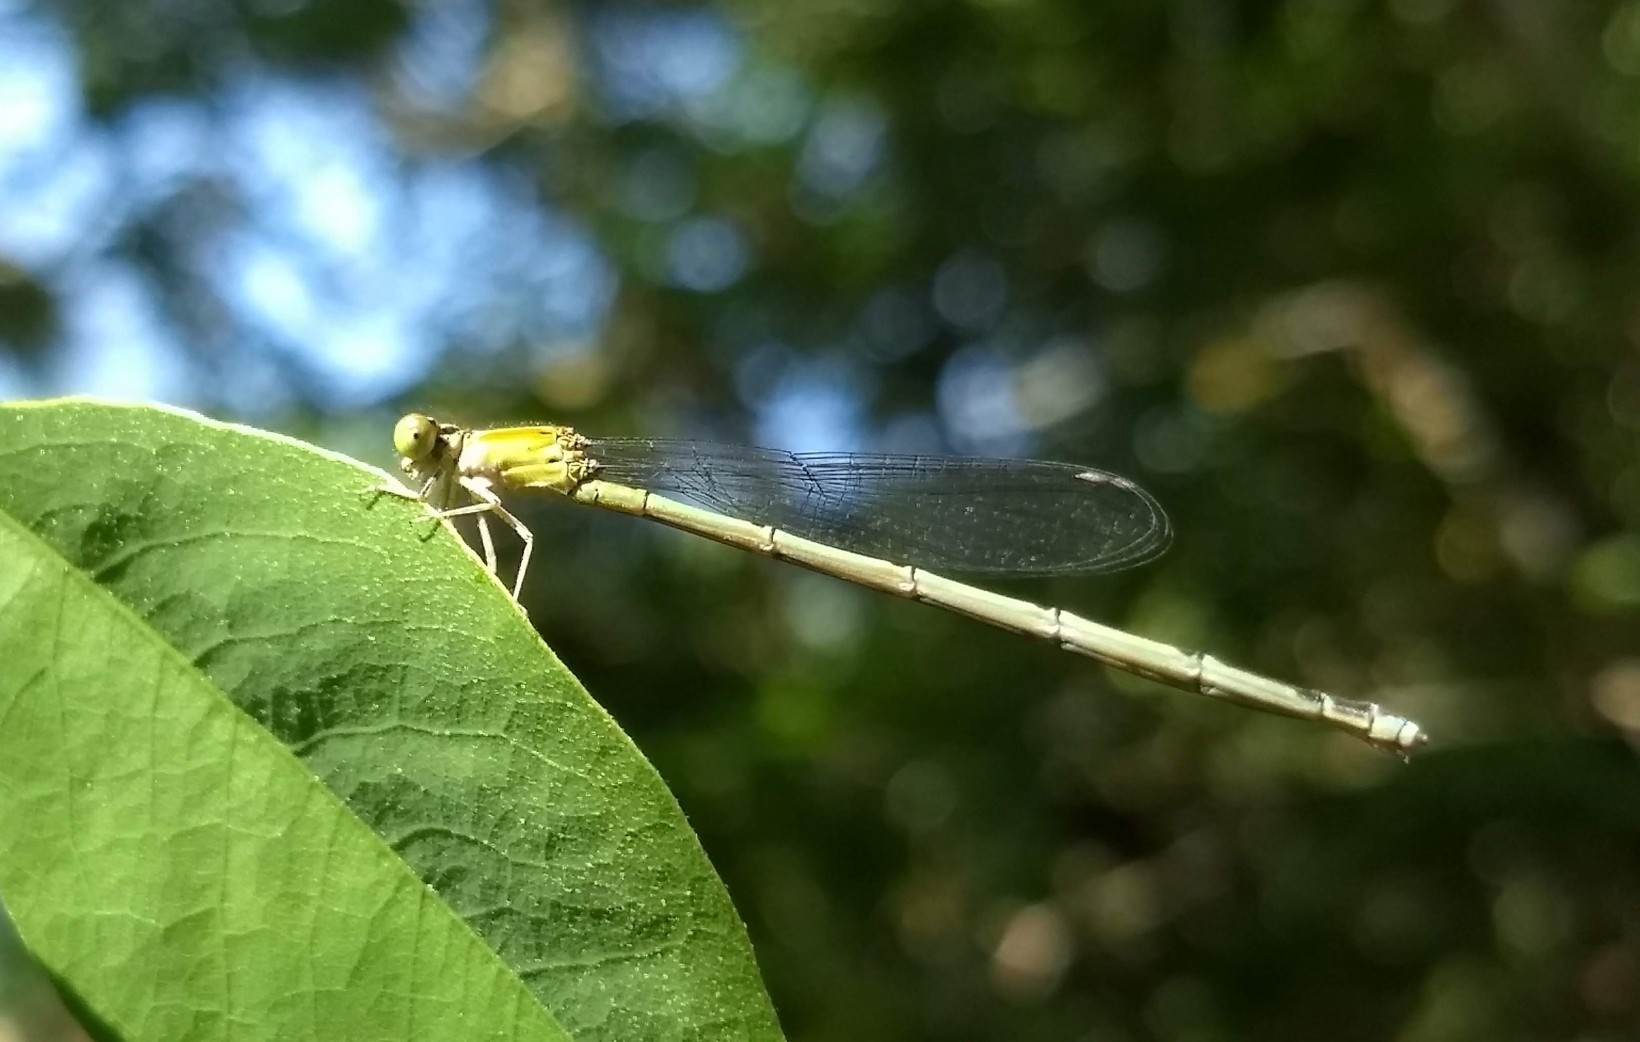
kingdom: Animalia
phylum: Arthropoda
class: Insecta
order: Odonata
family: Coenagrionidae
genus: Ceriagrion
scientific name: Ceriagrion coromandelianum
